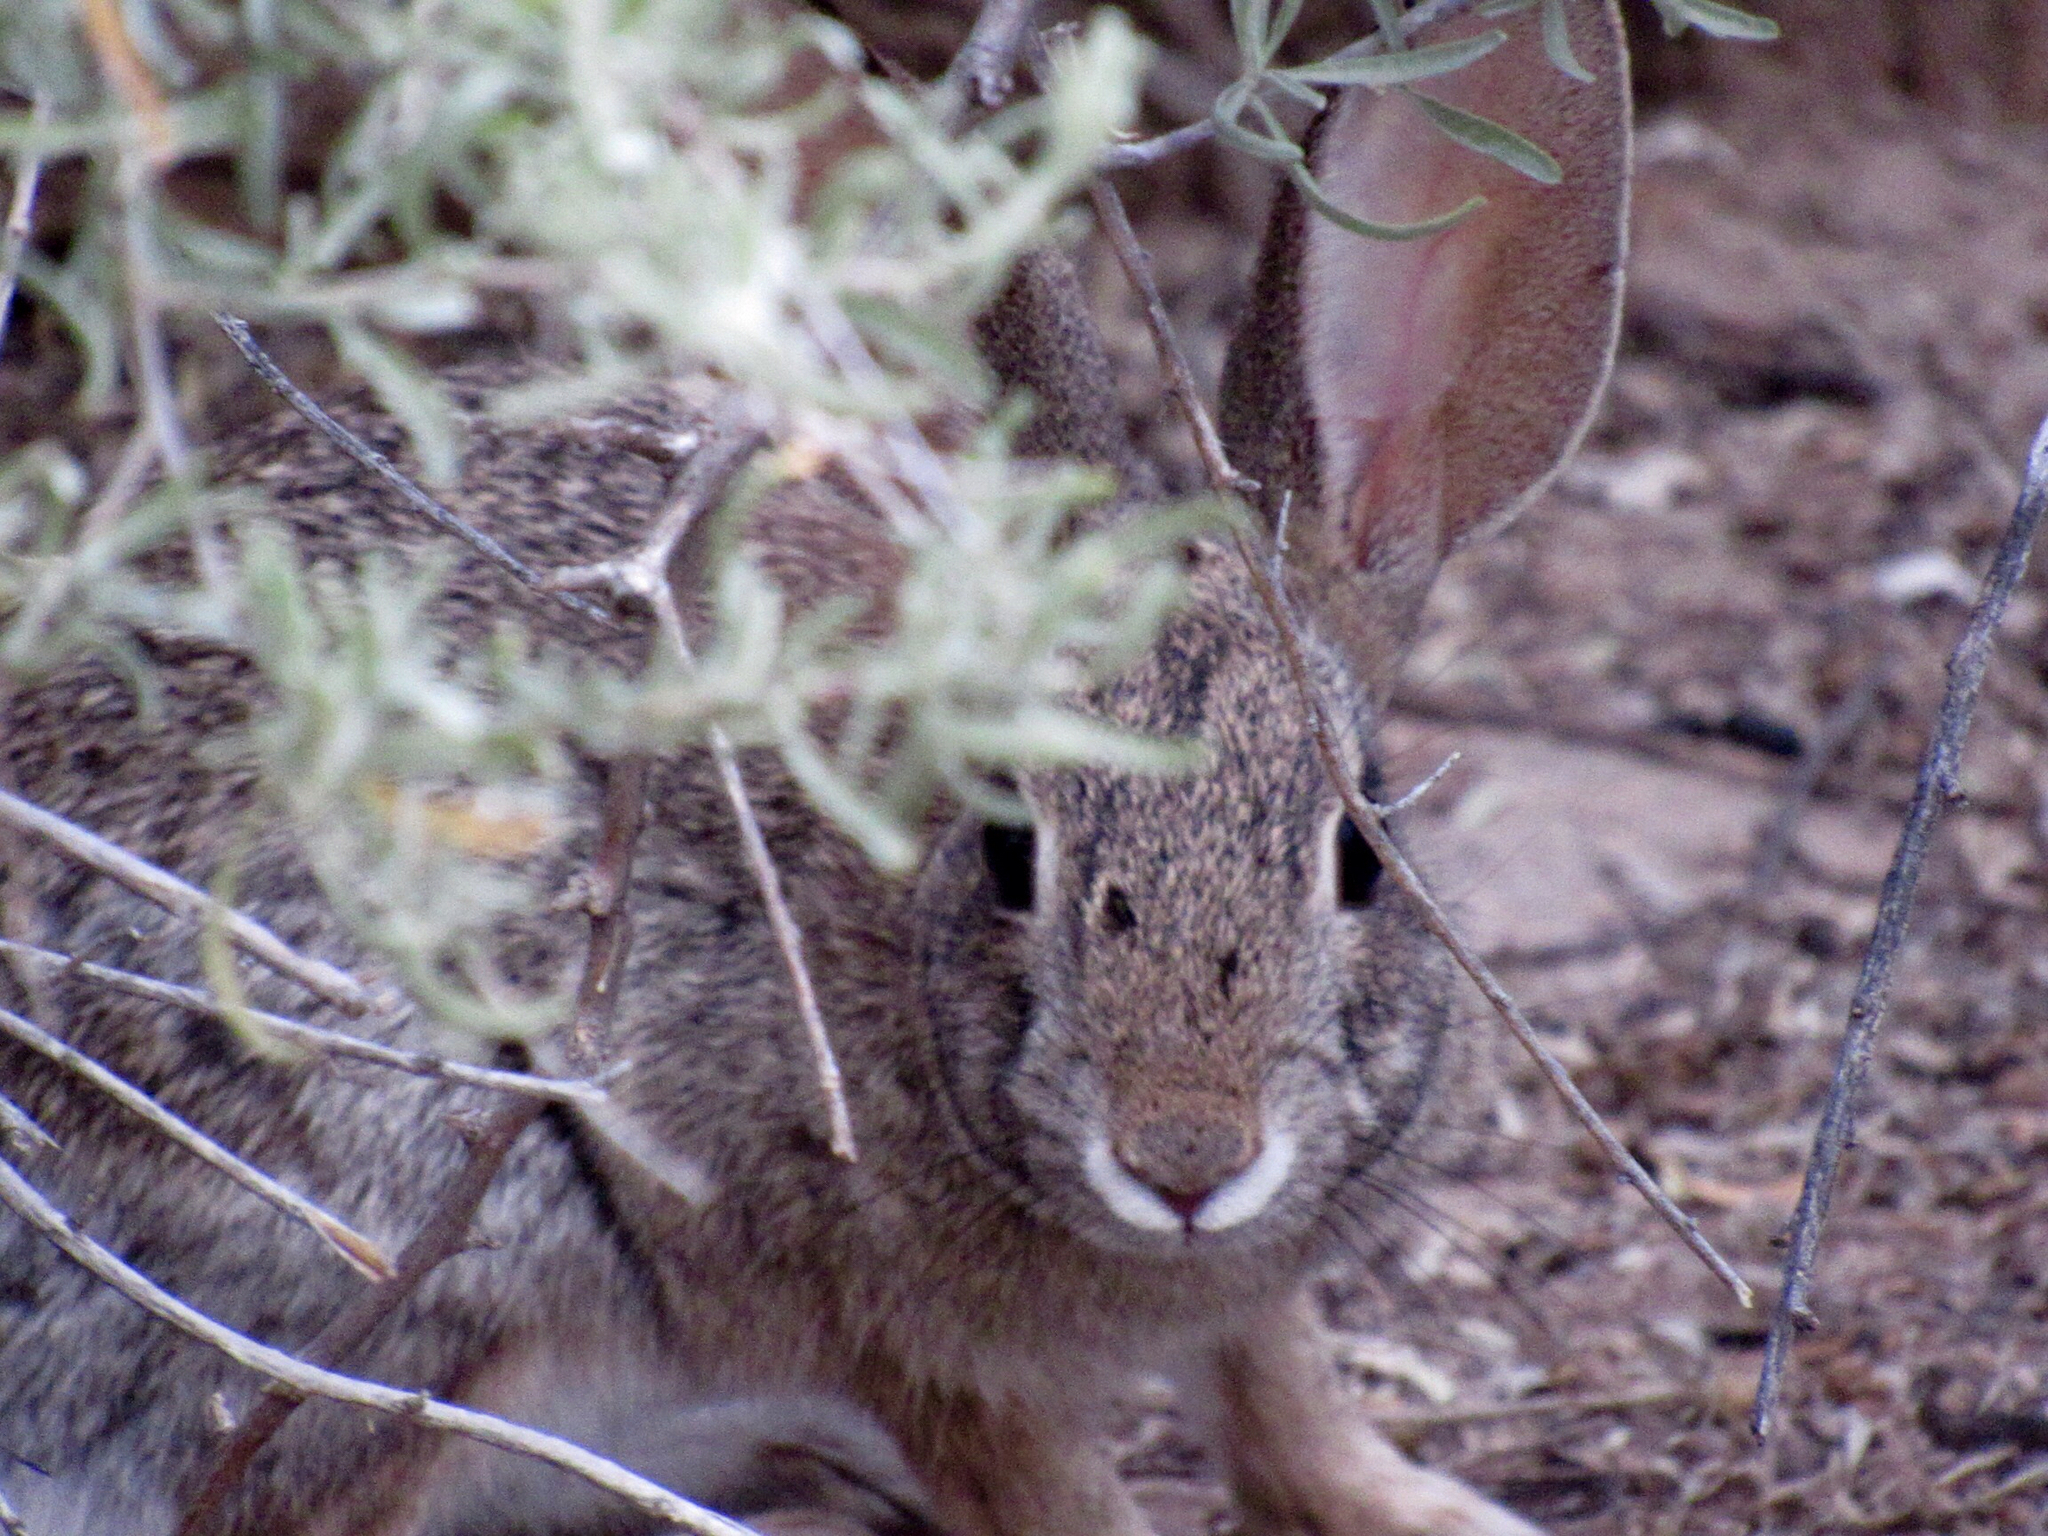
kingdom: Animalia
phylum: Chordata
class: Mammalia
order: Lagomorpha
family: Leporidae
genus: Sylvilagus
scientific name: Sylvilagus audubonii
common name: Desert cottontail
